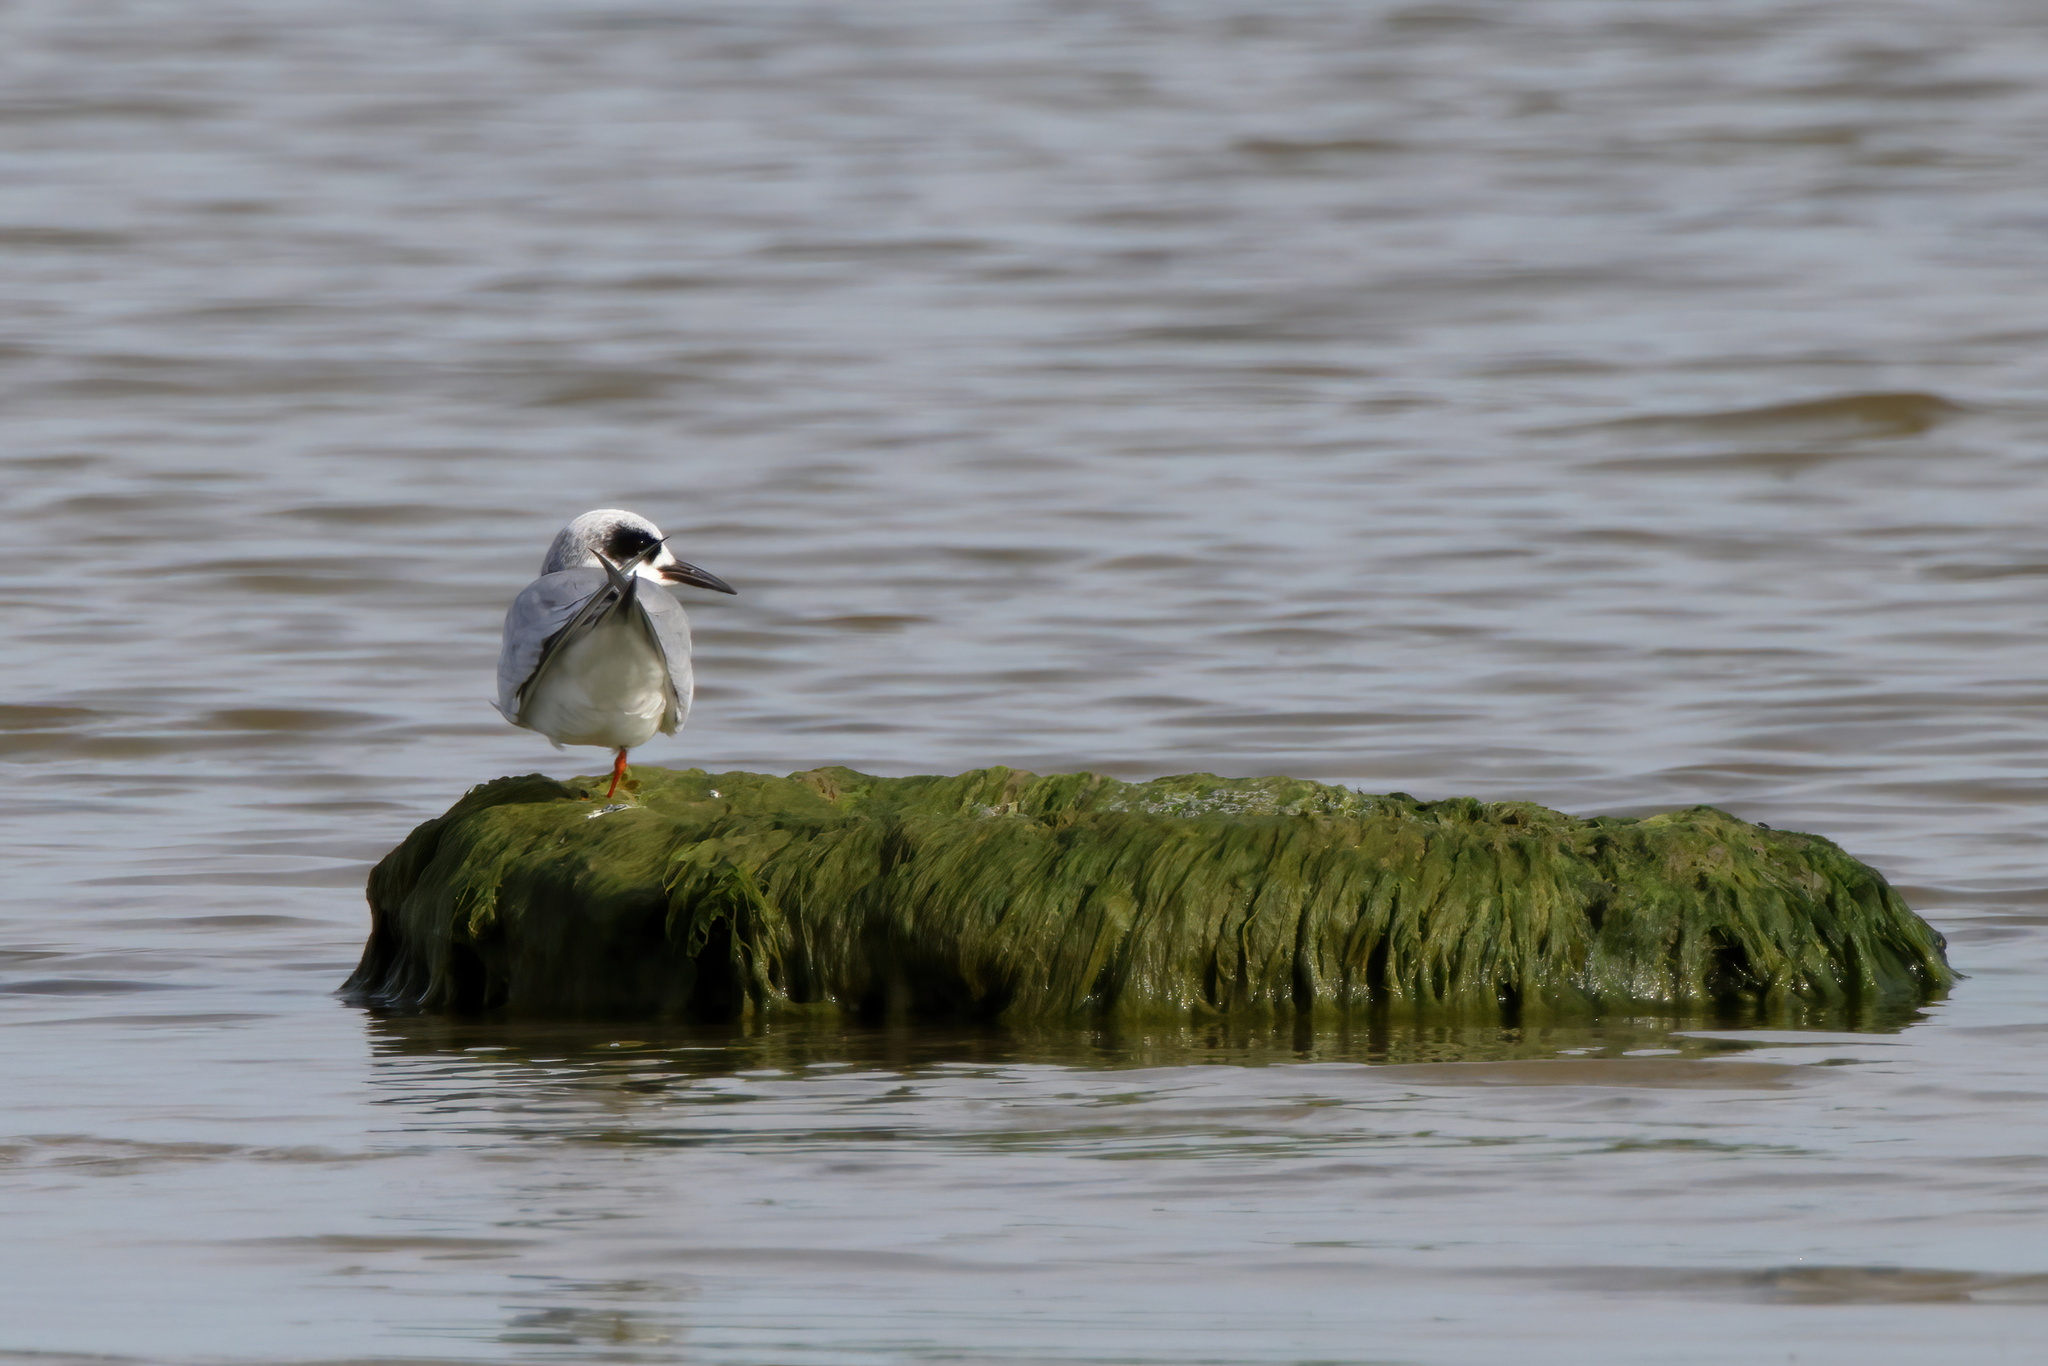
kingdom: Animalia
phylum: Chordata
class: Aves
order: Charadriiformes
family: Laridae
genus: Sterna
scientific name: Sterna forsteri
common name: Forster's tern
